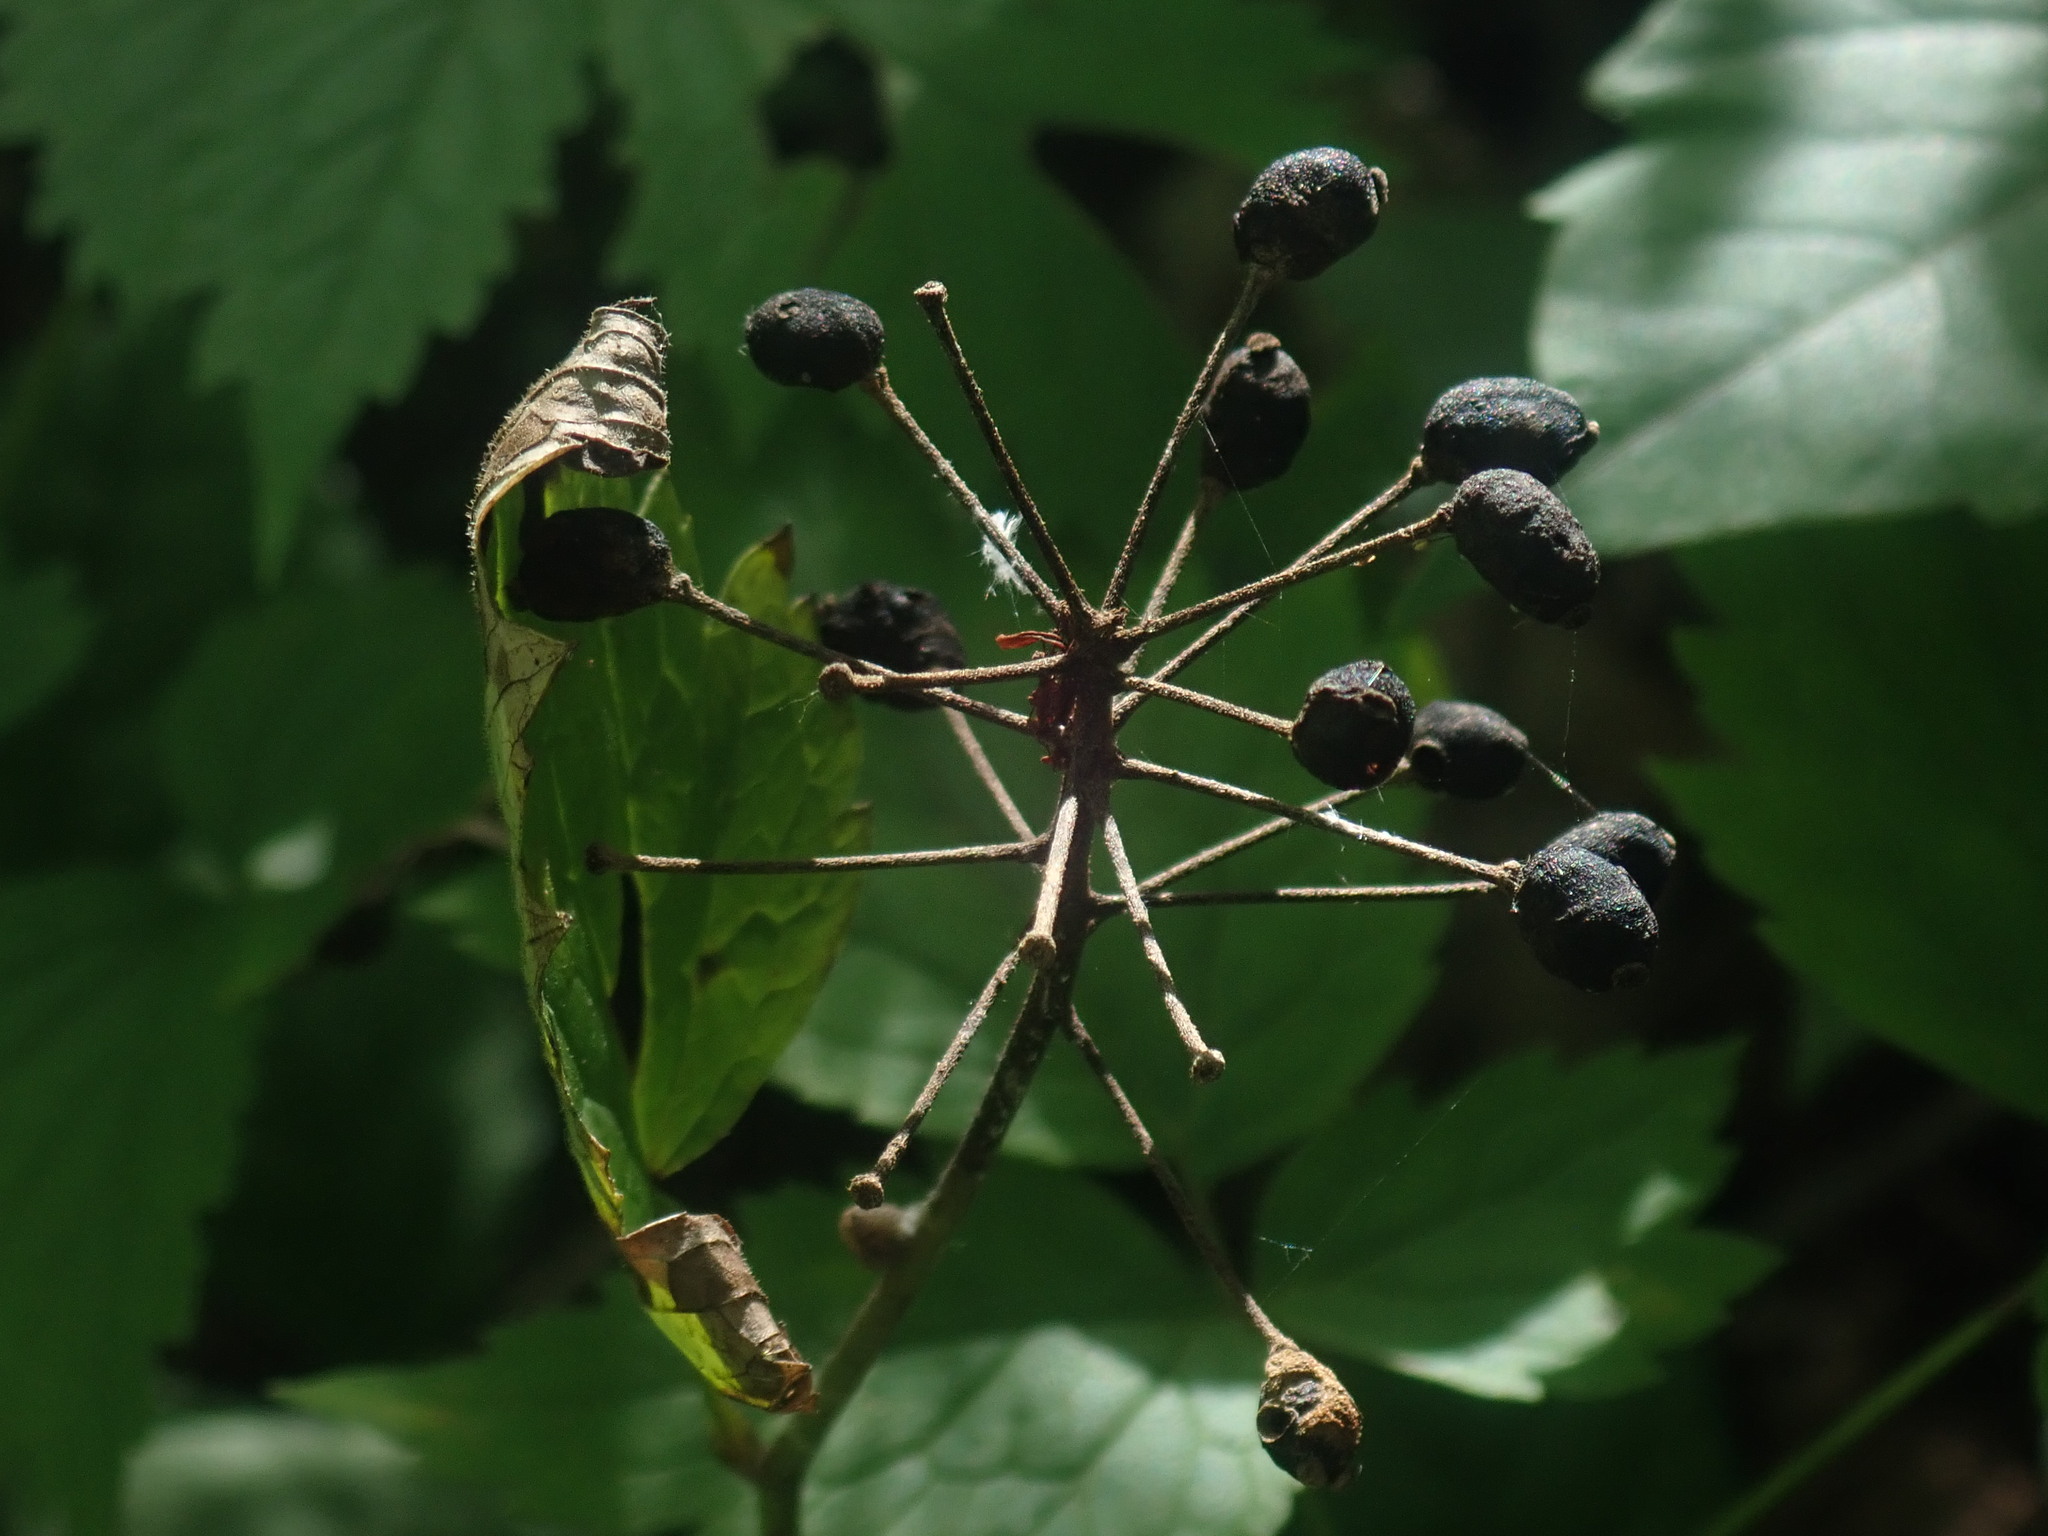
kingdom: Plantae
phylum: Tracheophyta
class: Magnoliopsida
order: Ranunculales
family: Ranunculaceae
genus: Actaea
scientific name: Actaea rubra
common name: Red baneberry
